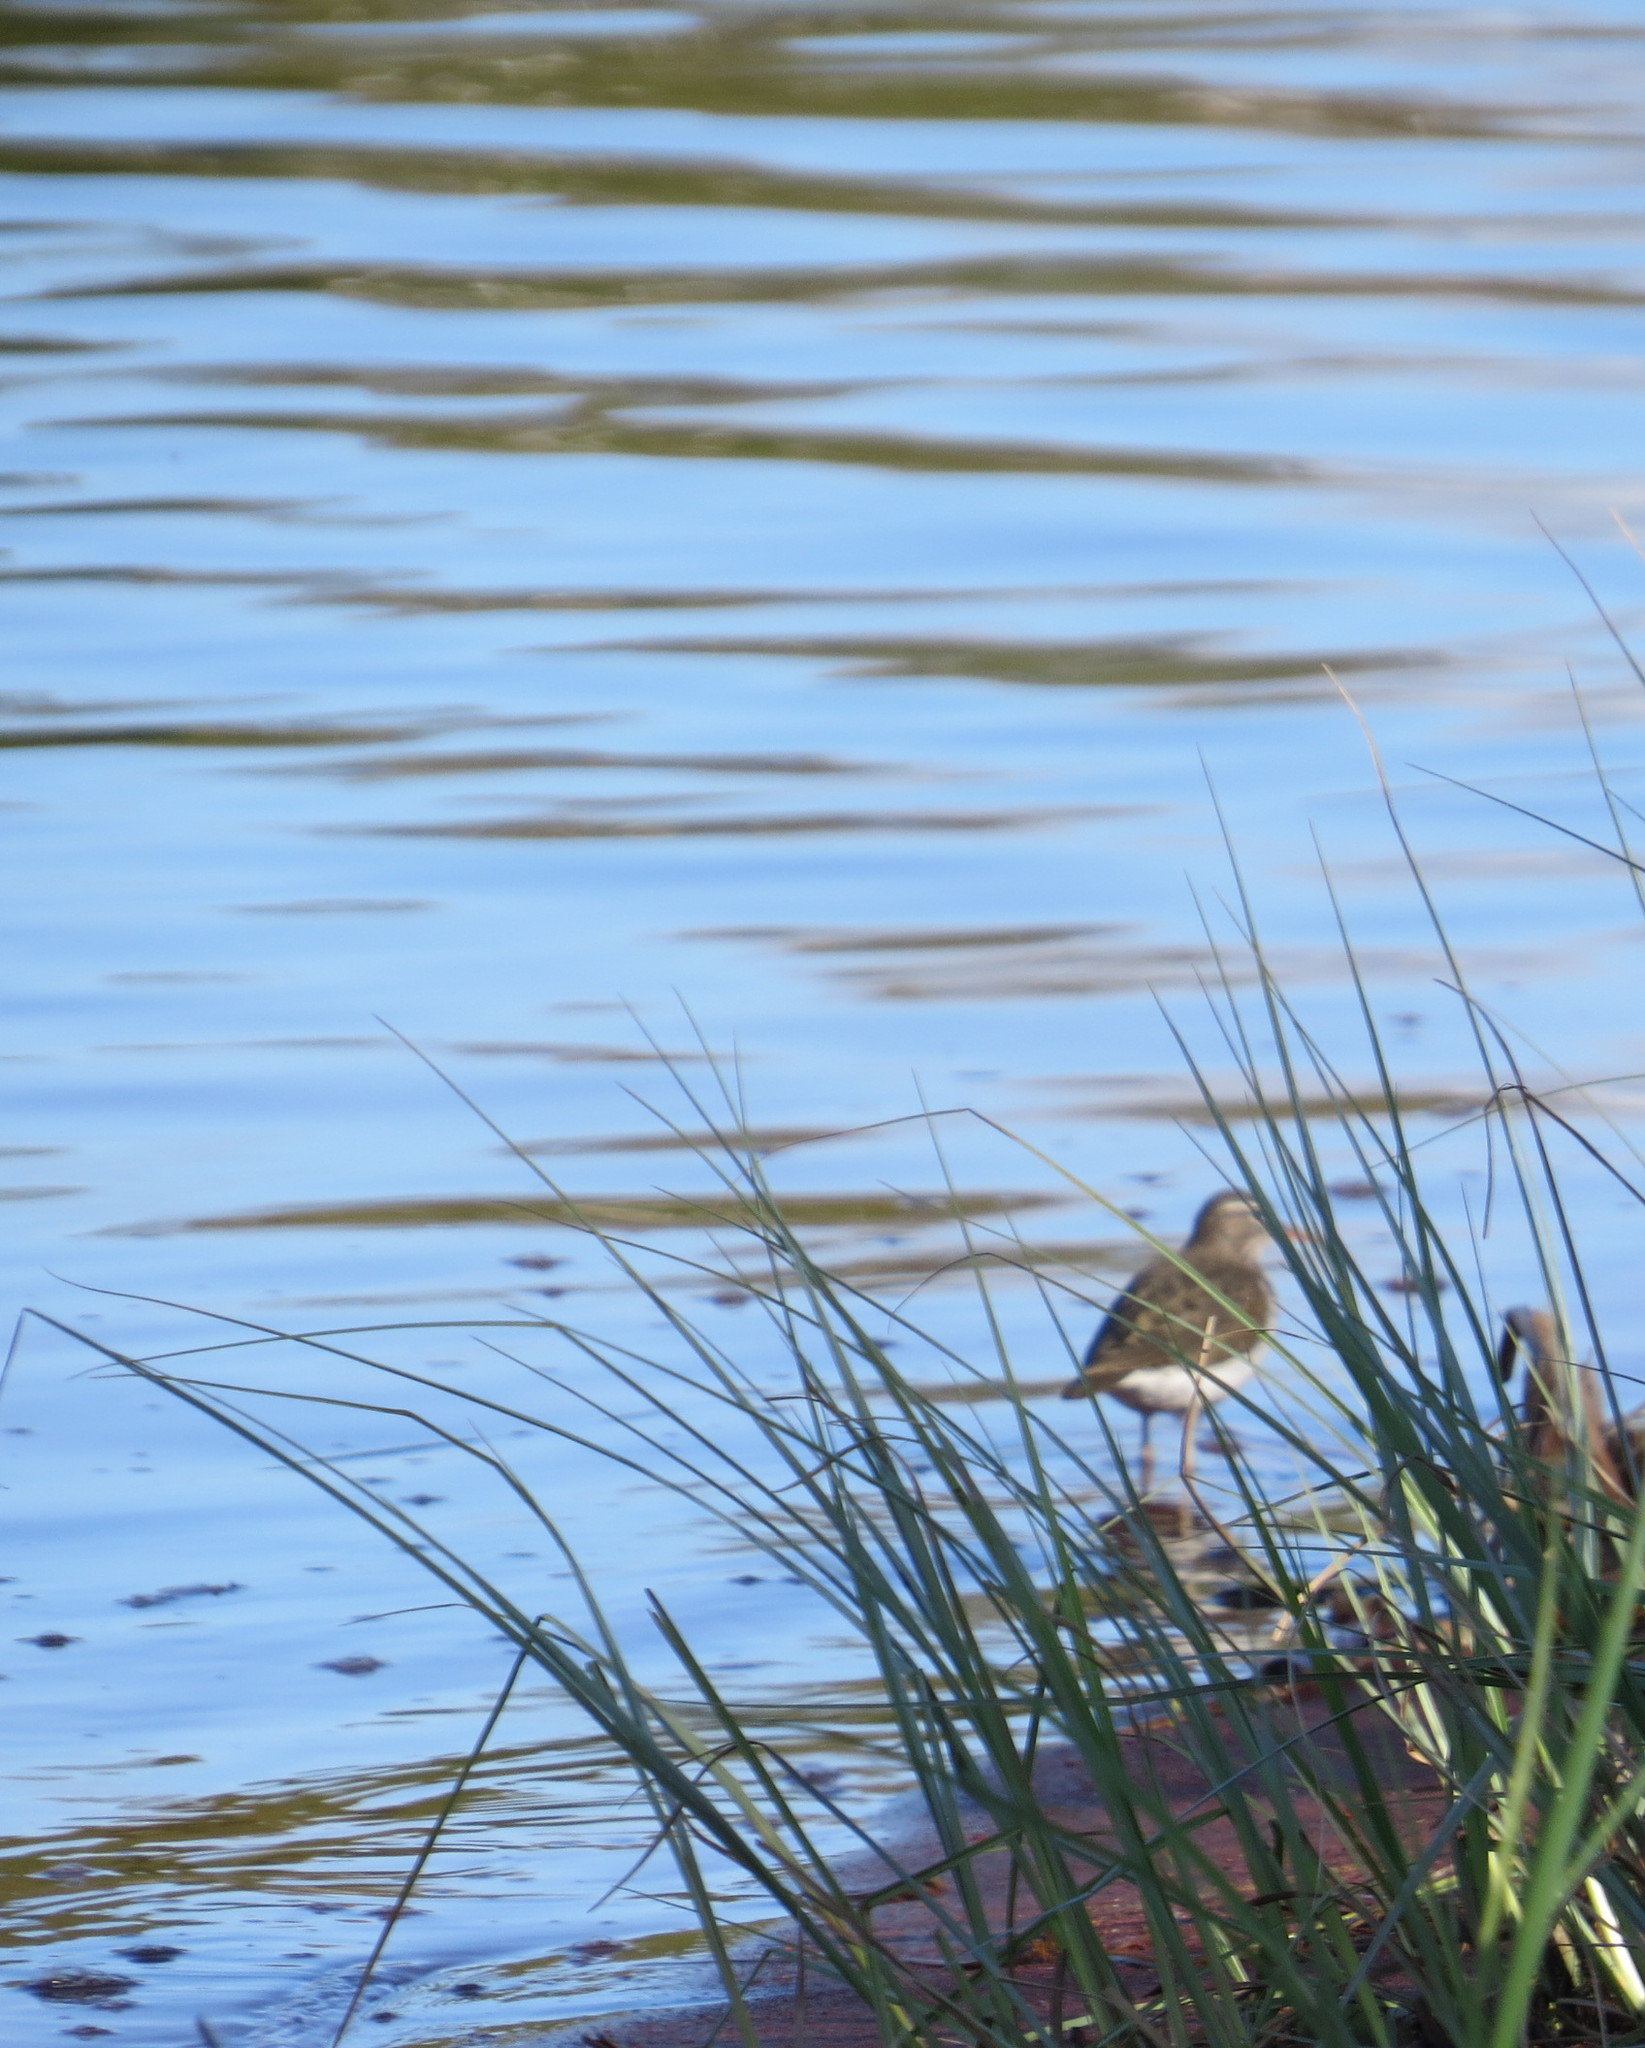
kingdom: Animalia
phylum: Chordata
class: Aves
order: Charadriiformes
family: Scolopacidae
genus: Actitis
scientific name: Actitis macularius
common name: Spotted sandpiper
